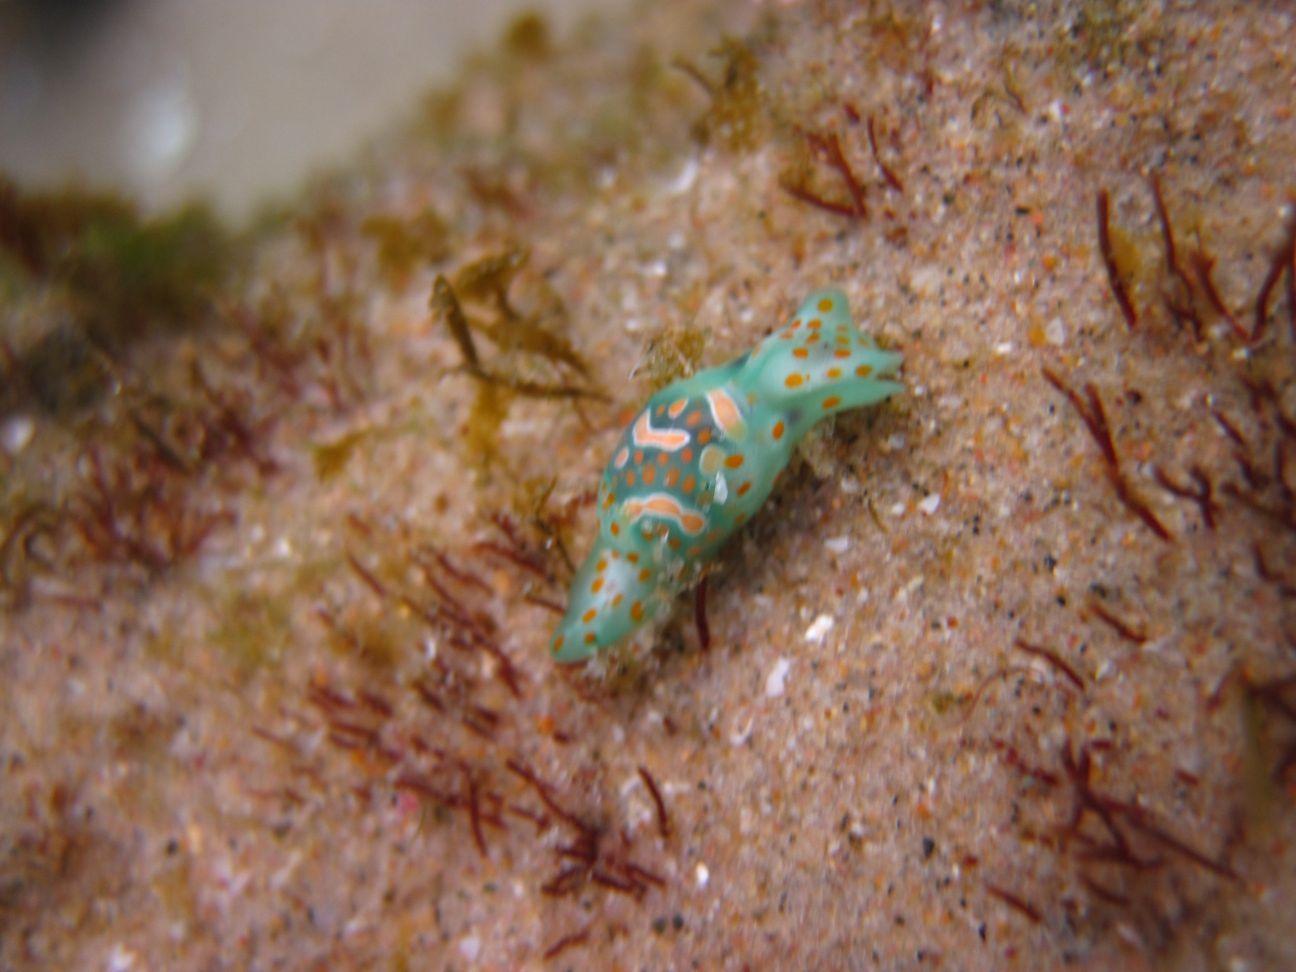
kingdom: Animalia
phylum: Mollusca
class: Gastropoda
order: Cephalaspidea
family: Haminoeidae
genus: Lamprohaminoea
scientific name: Lamprohaminoea cymbalum
